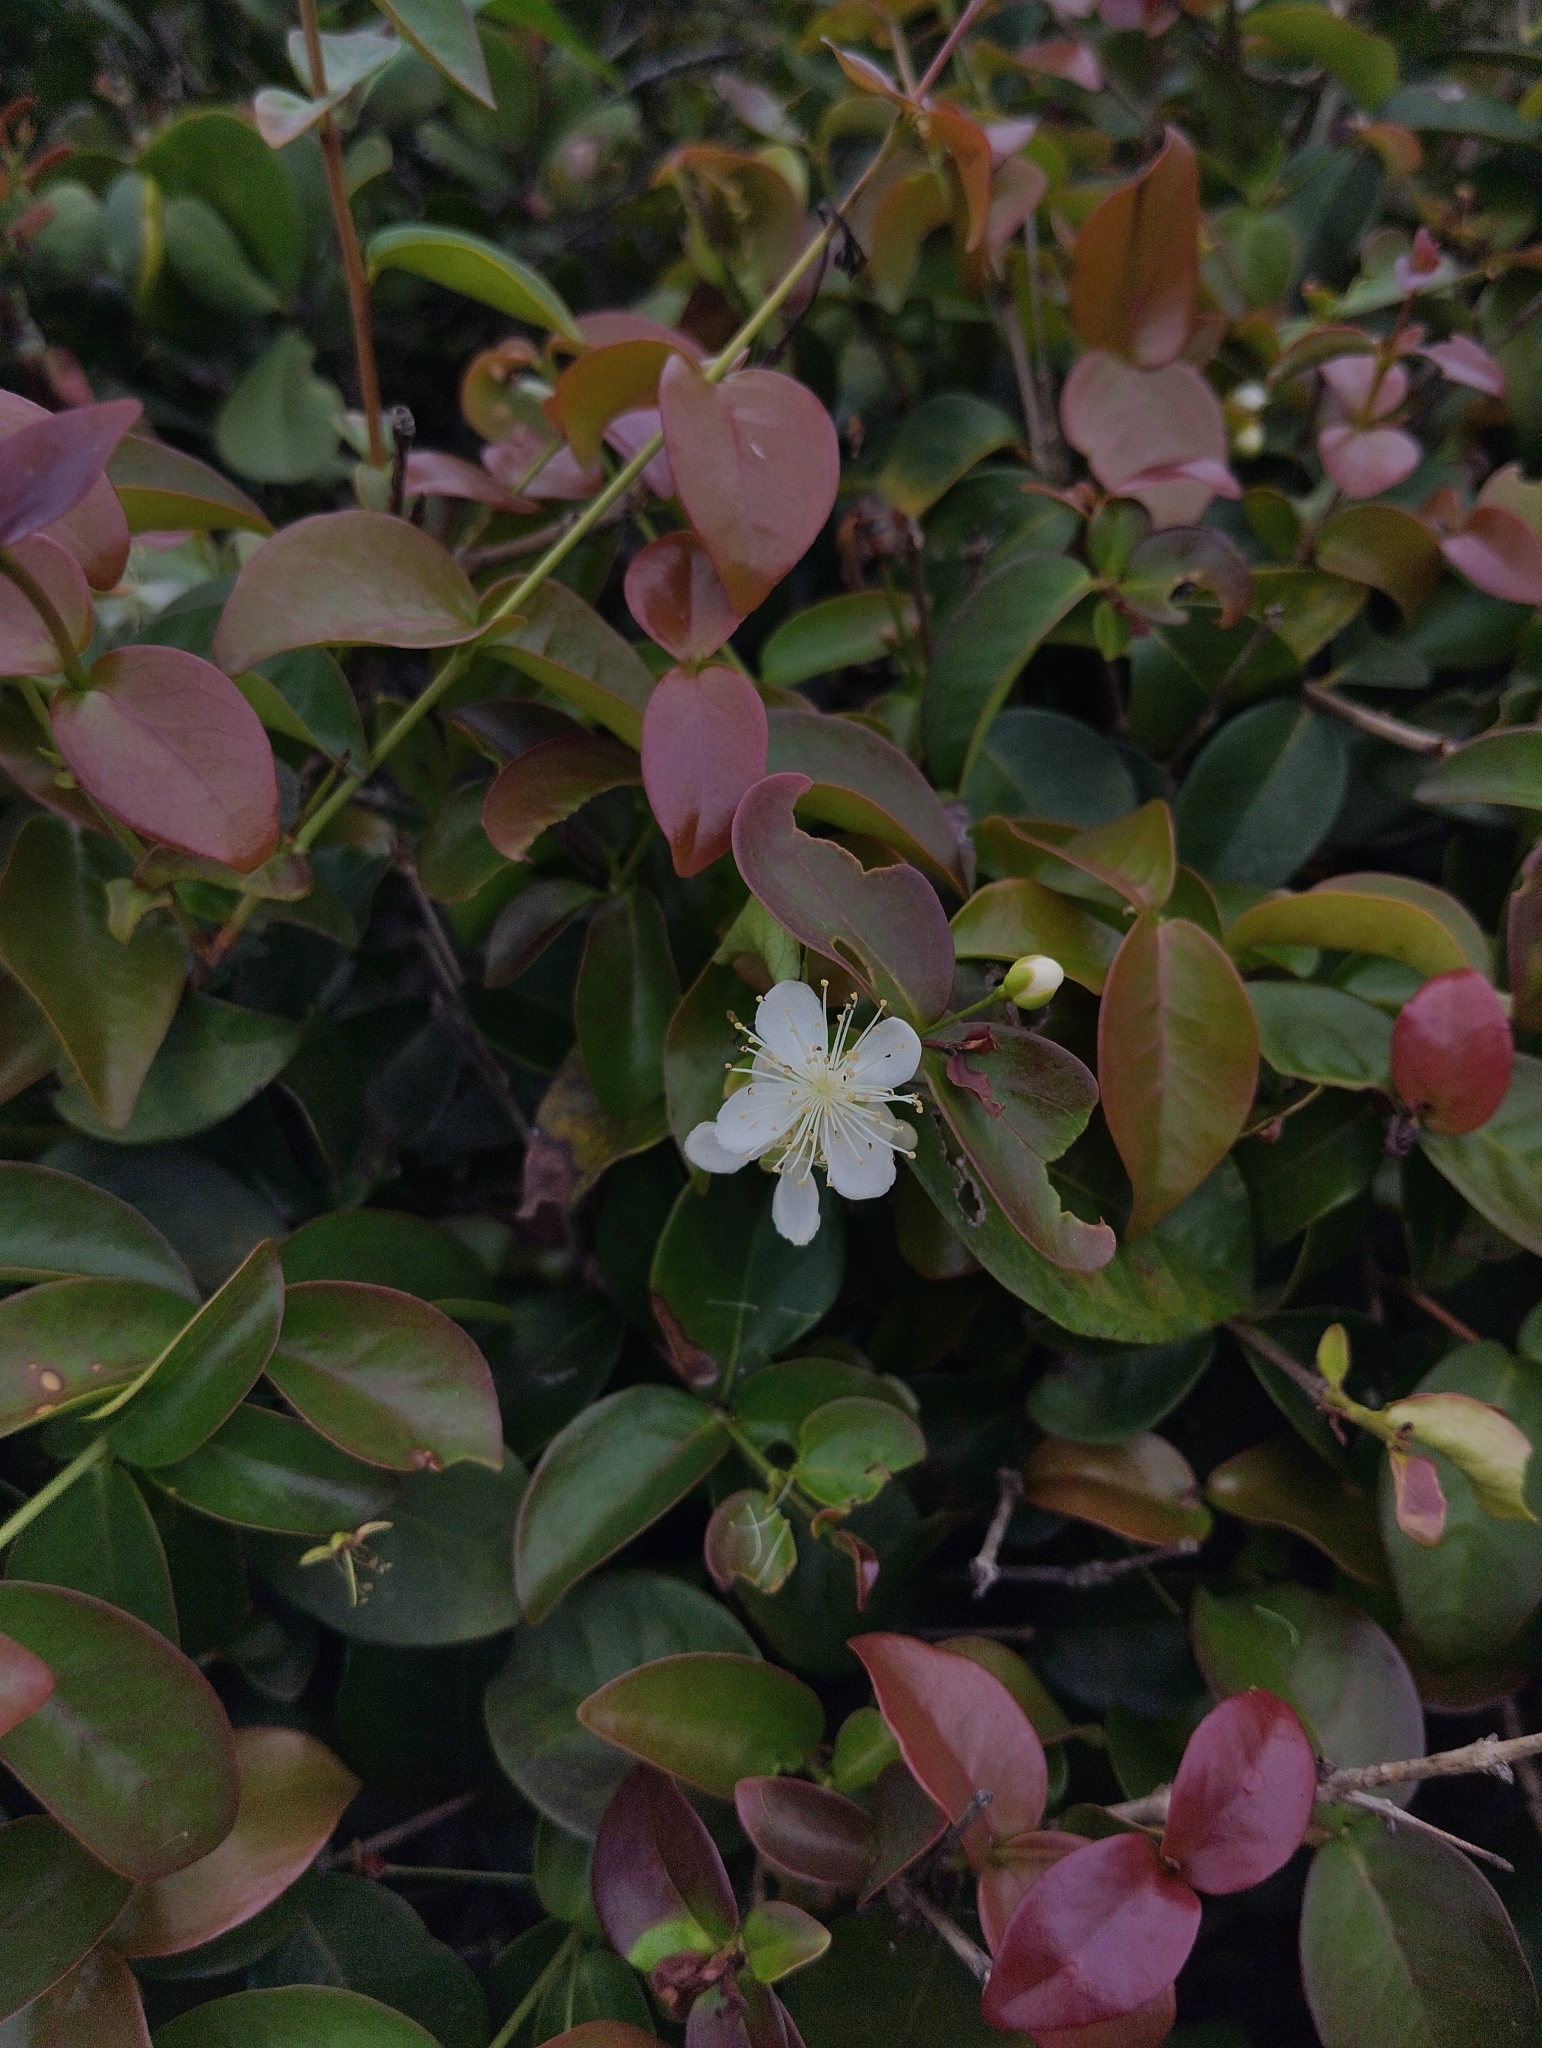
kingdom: Plantae
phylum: Tracheophyta
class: Magnoliopsida
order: Myrtales
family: Myrtaceae
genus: Eugenia
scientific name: Eugenia uniflora
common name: Surinam cherry
